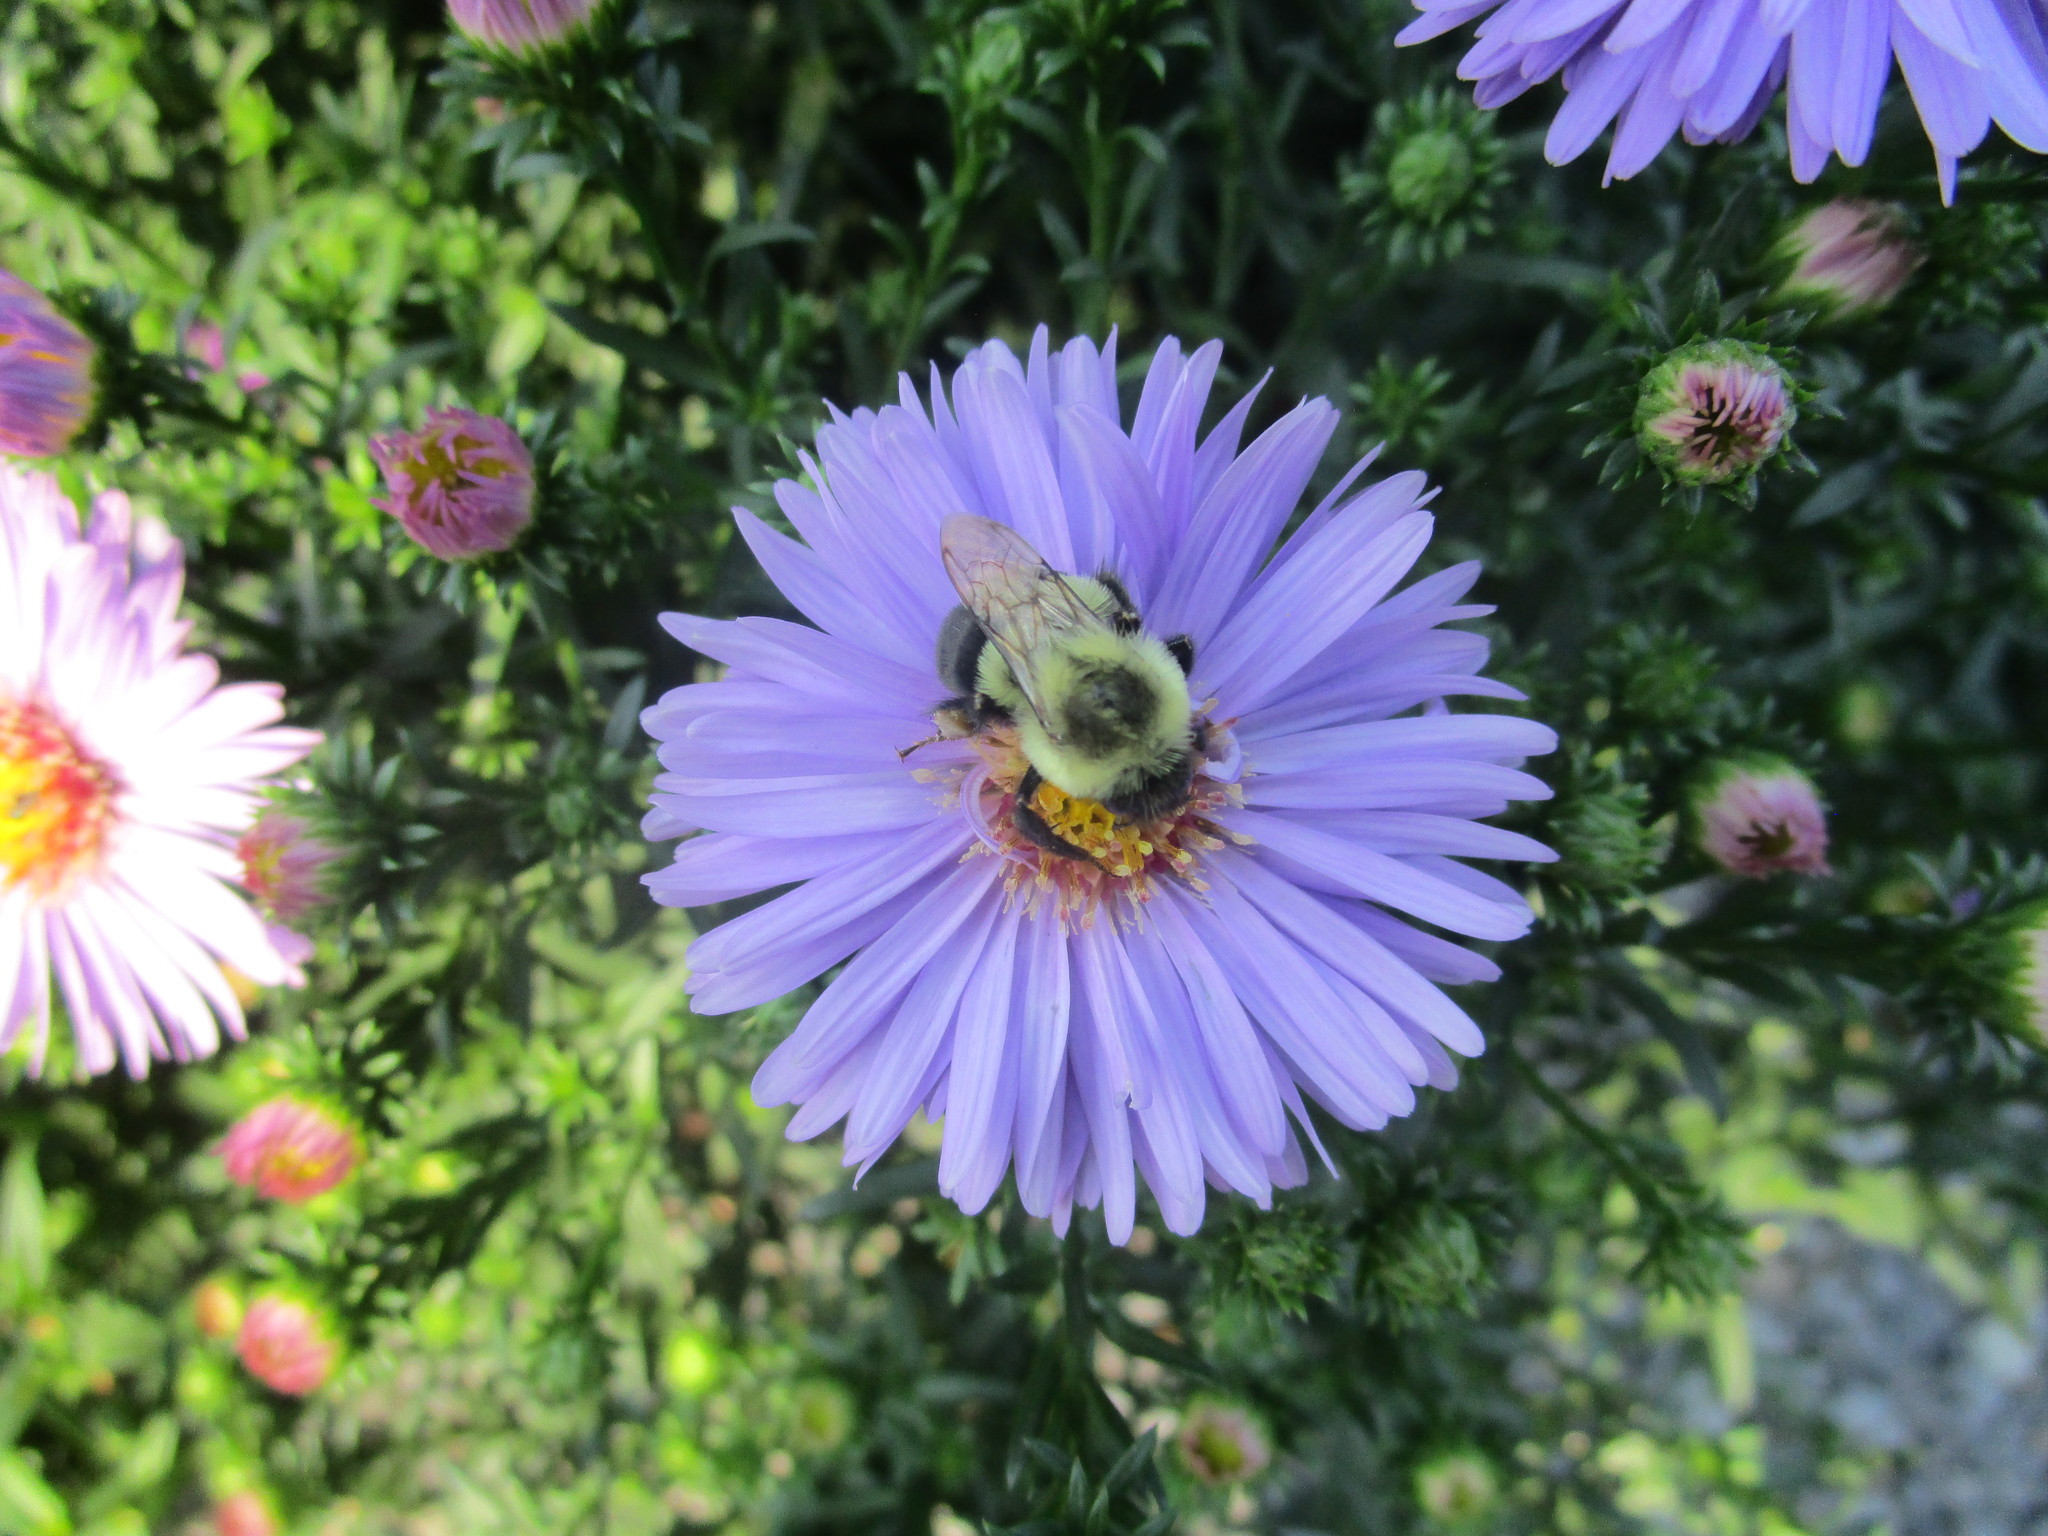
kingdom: Animalia
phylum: Arthropoda
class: Insecta
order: Hymenoptera
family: Apidae
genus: Bombus
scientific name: Bombus impatiens
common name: Common eastern bumble bee
